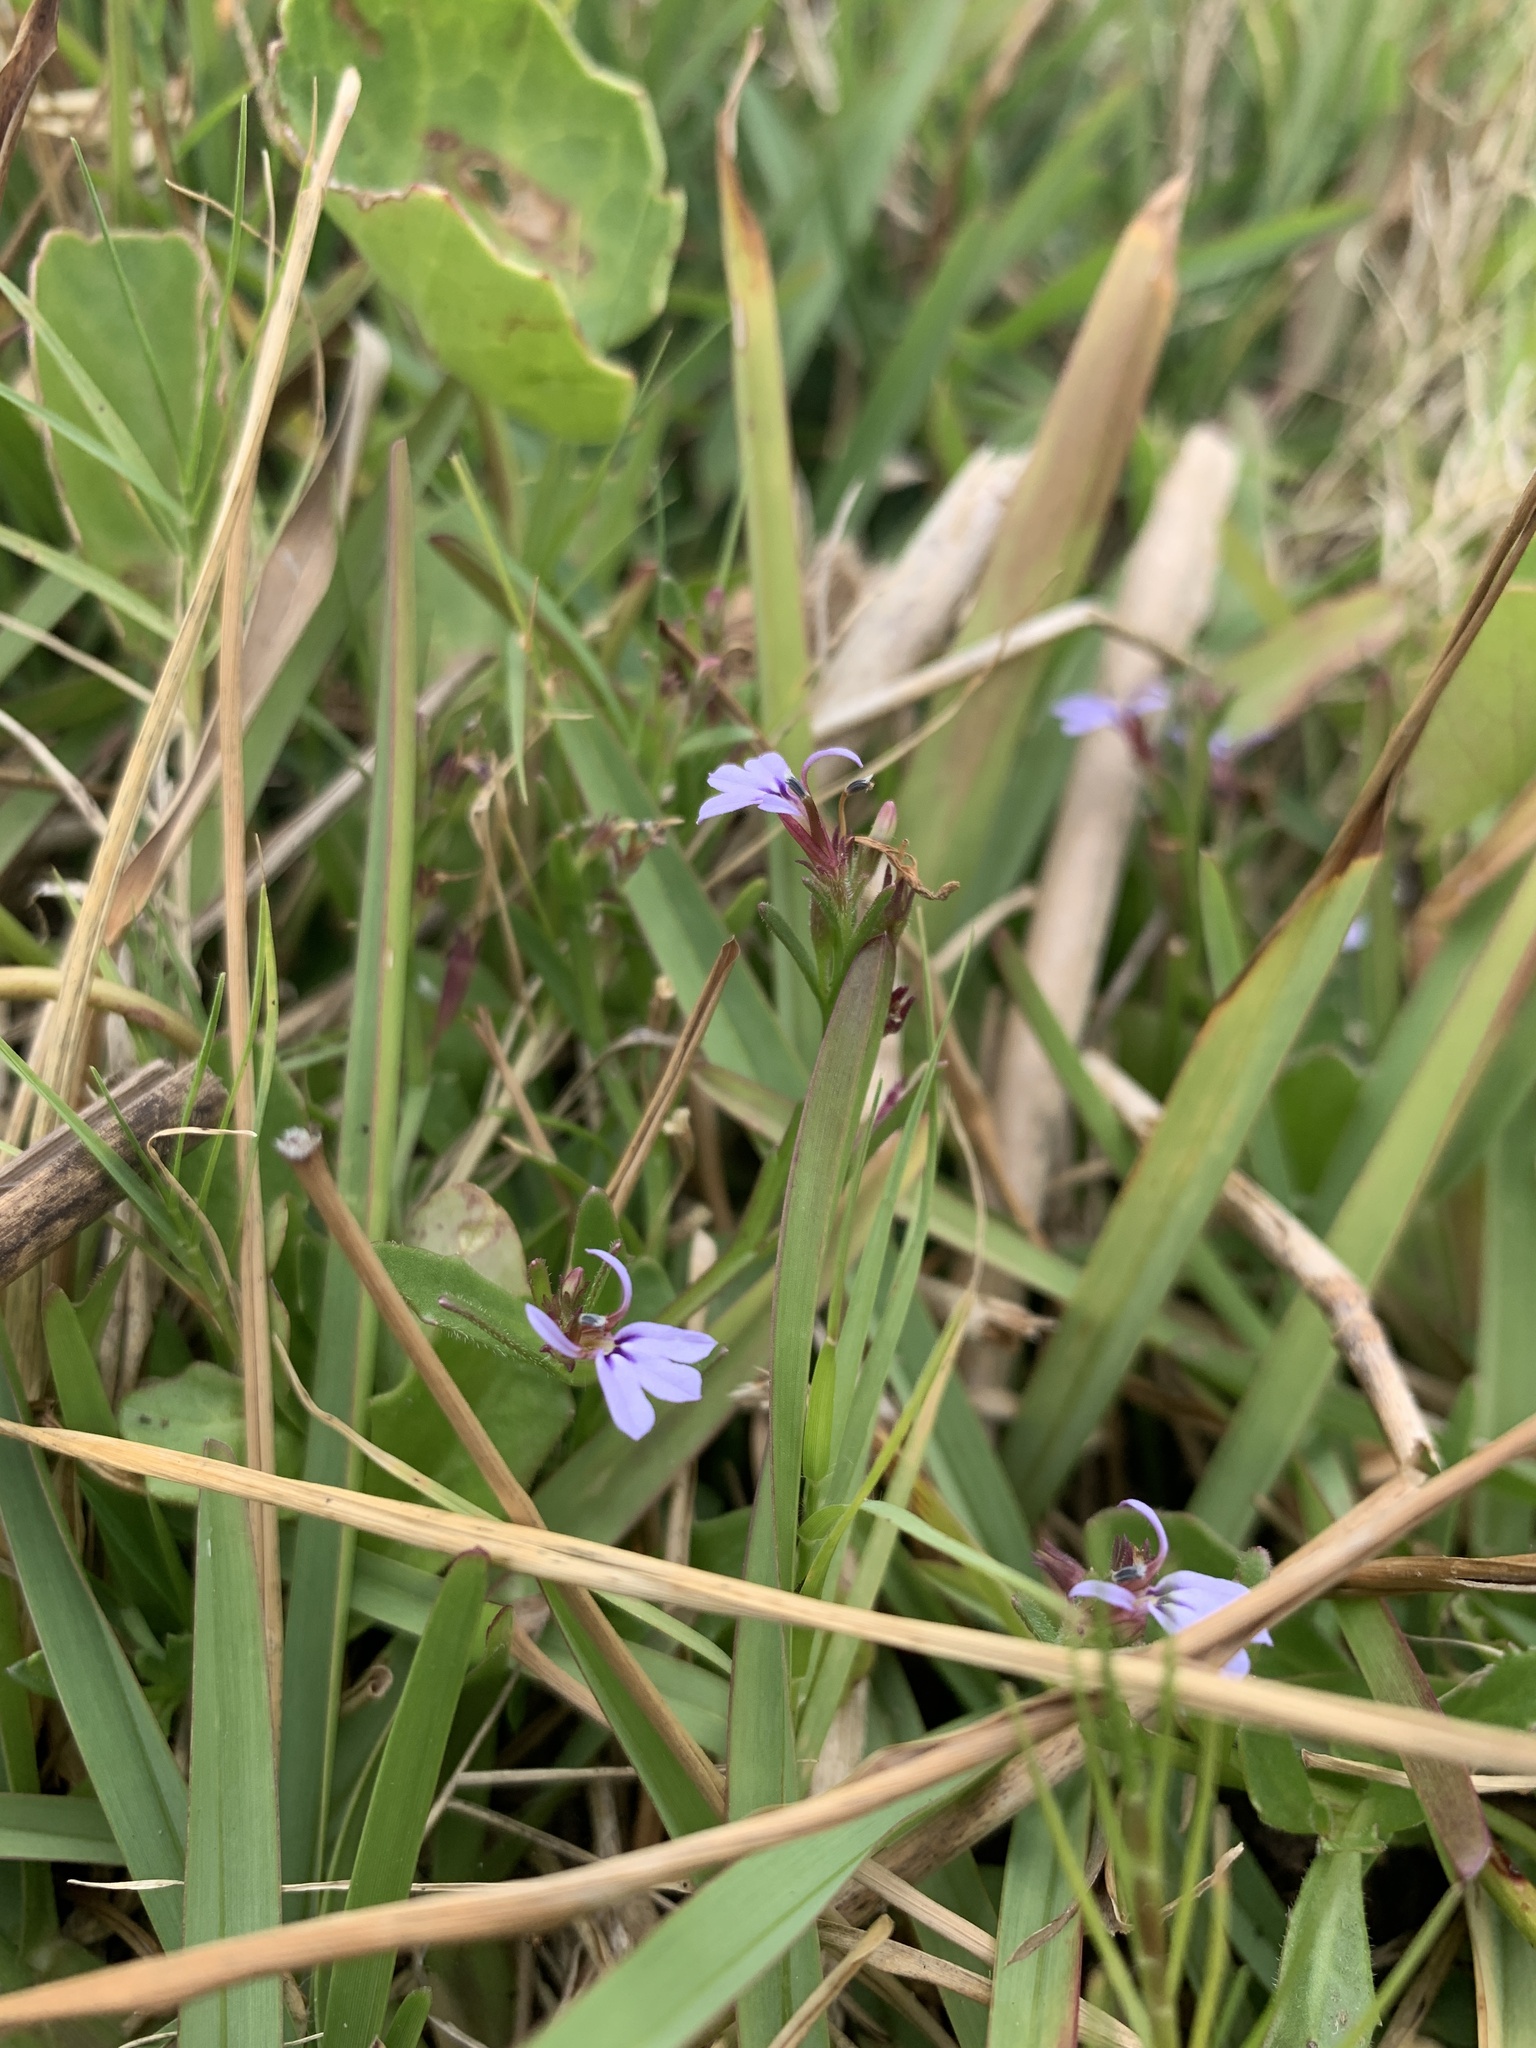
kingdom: Plantae
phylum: Tracheophyta
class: Magnoliopsida
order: Asterales
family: Campanulaceae
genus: Lobelia
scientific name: Lobelia anceps
